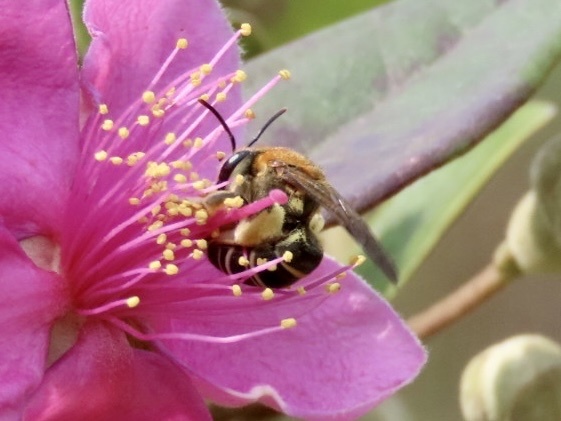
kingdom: Animalia
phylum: Arthropoda
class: Insecta
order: Hymenoptera
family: Halictidae
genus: Nomia
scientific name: Nomia thoracica
